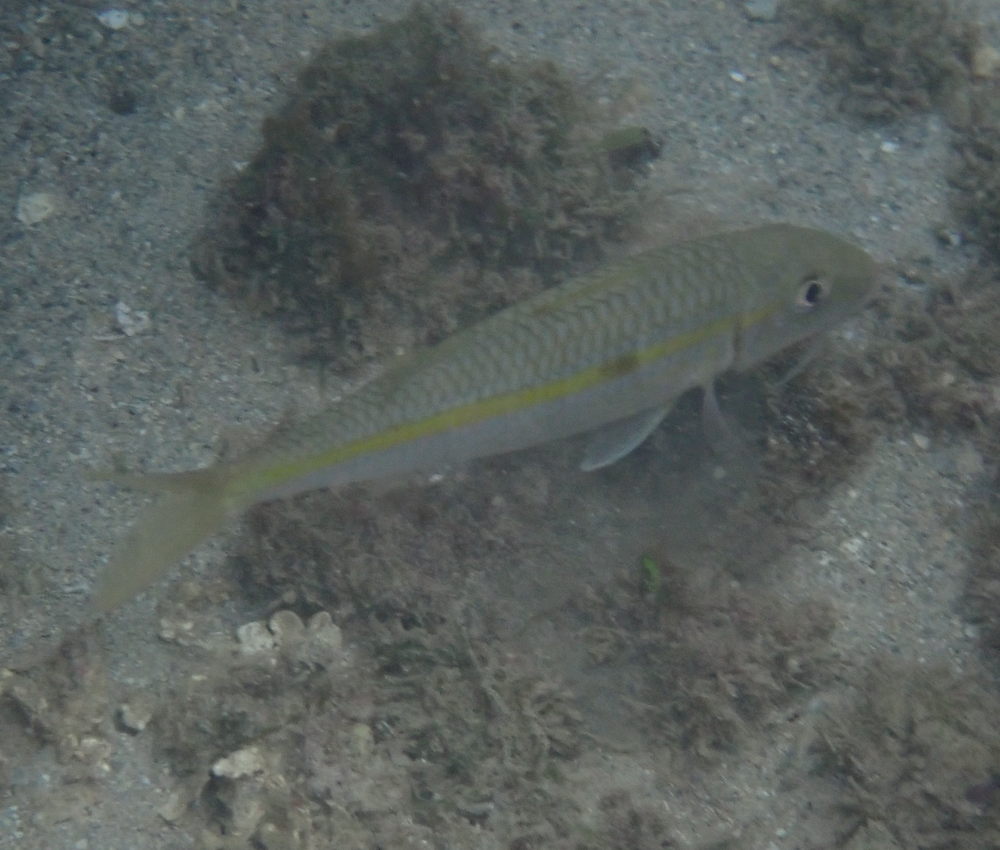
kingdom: Animalia
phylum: Chordata
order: Perciformes
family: Mullidae
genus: Mulloidichthys
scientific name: Mulloidichthys flavolineatus
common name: Yellowstripe goatfish
